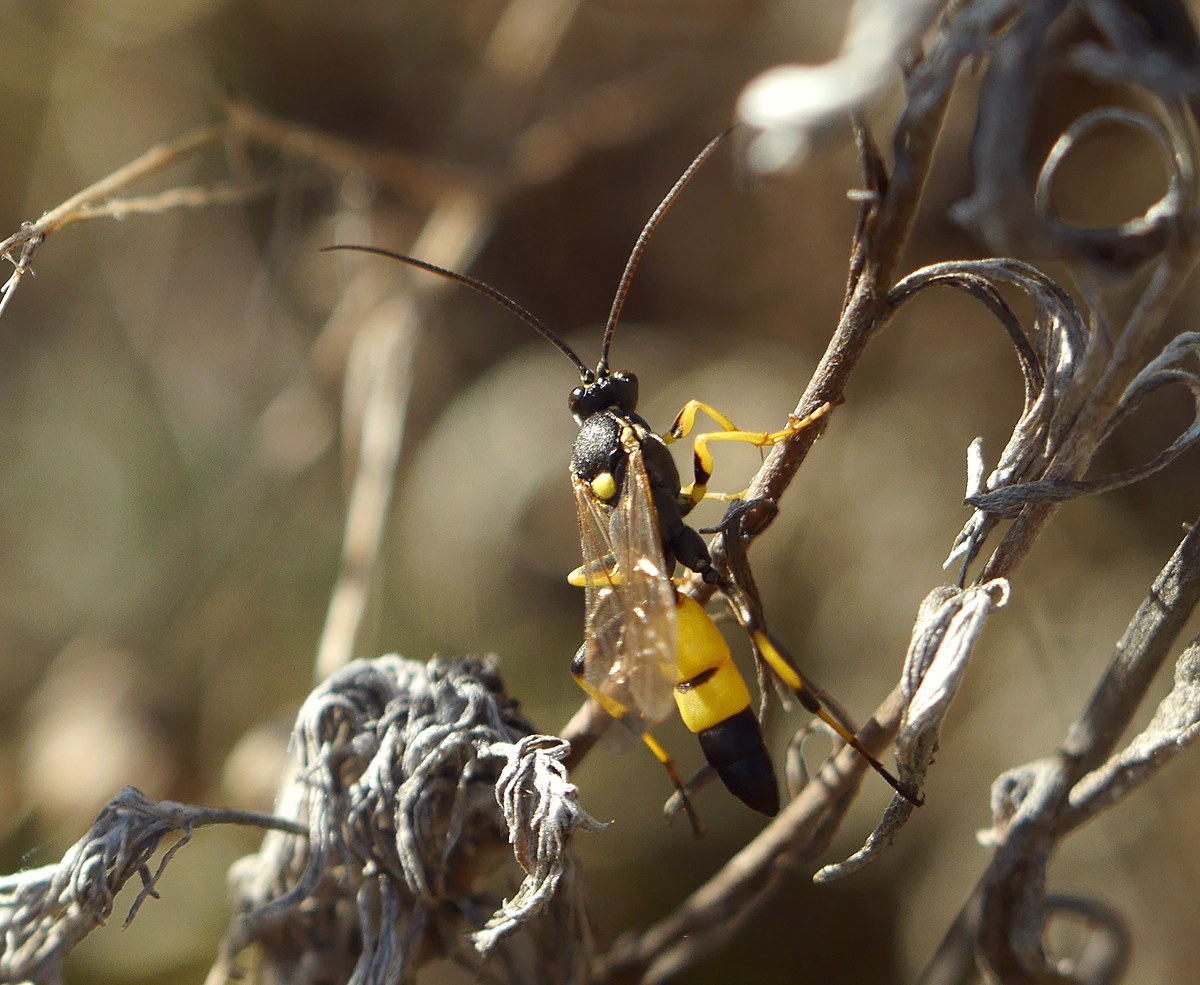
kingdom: Animalia
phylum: Arthropoda
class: Insecta
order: Hymenoptera
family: Ichneumonidae
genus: Spilothyrateles
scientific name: Spilothyrateles illuminatorius
